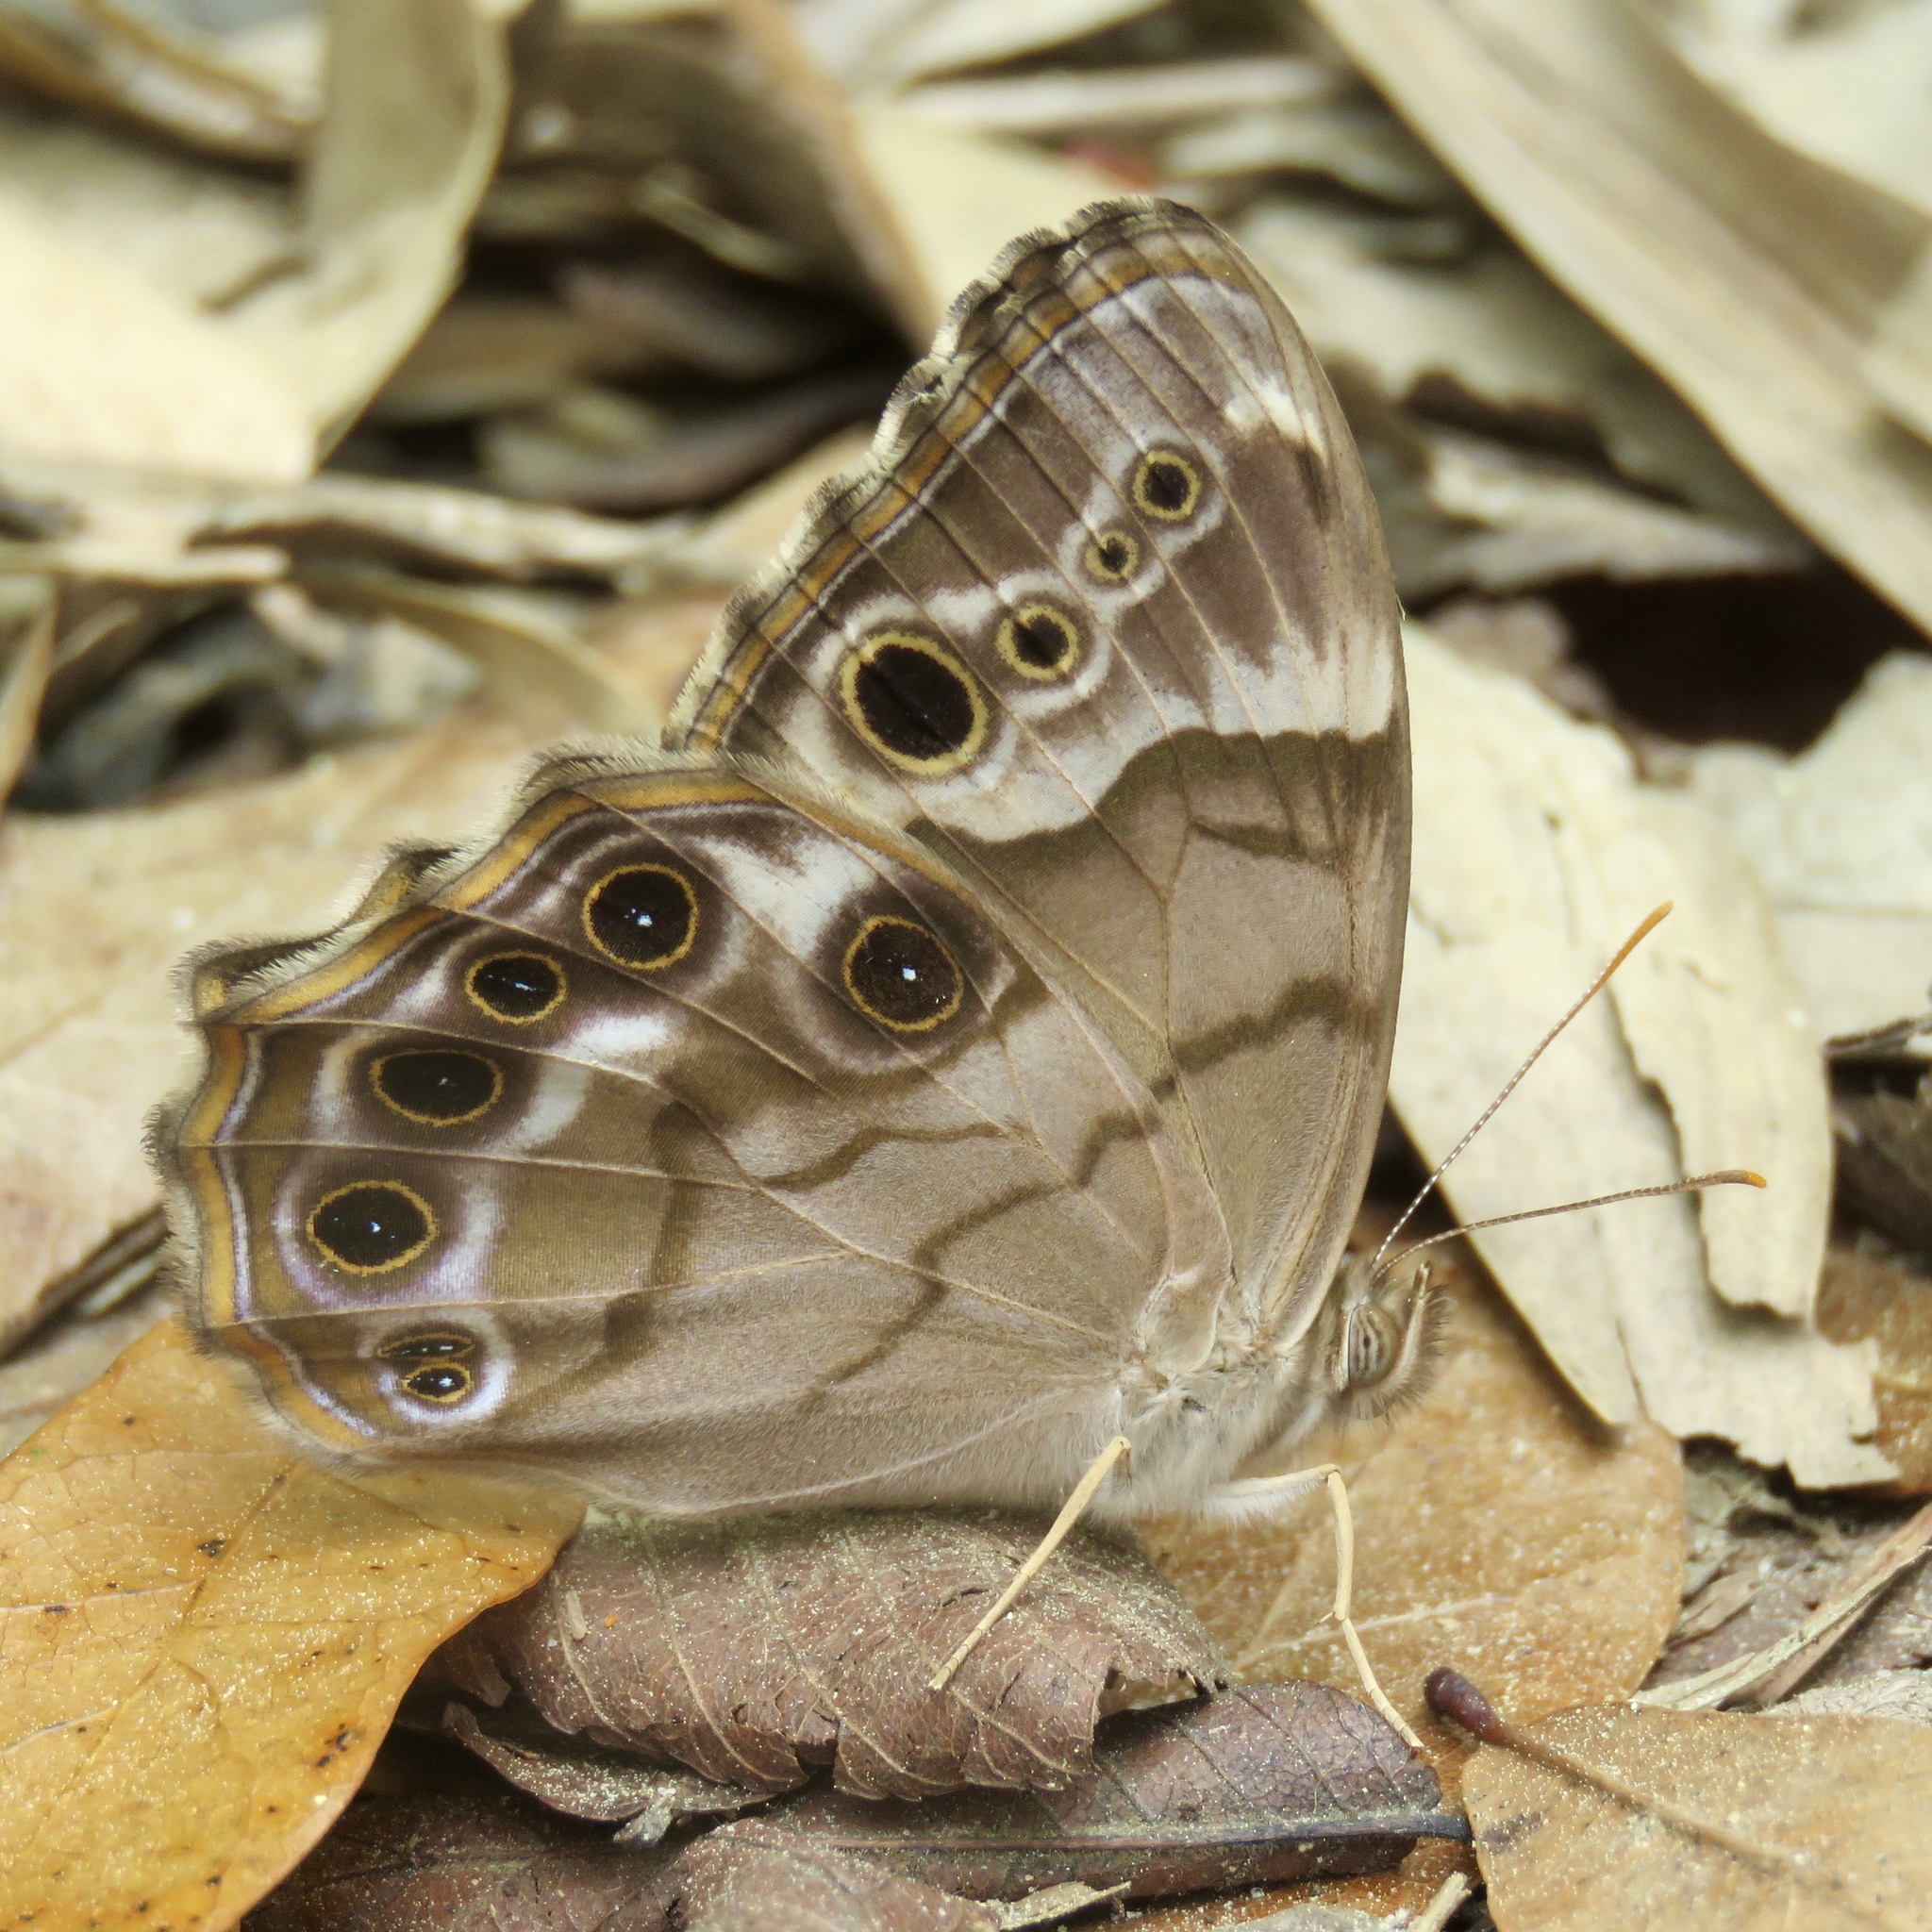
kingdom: Animalia
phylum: Arthropoda
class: Insecta
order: Lepidoptera
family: Nymphalidae
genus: Enodia
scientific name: Enodia portlandia
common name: Southern pearly-eye
